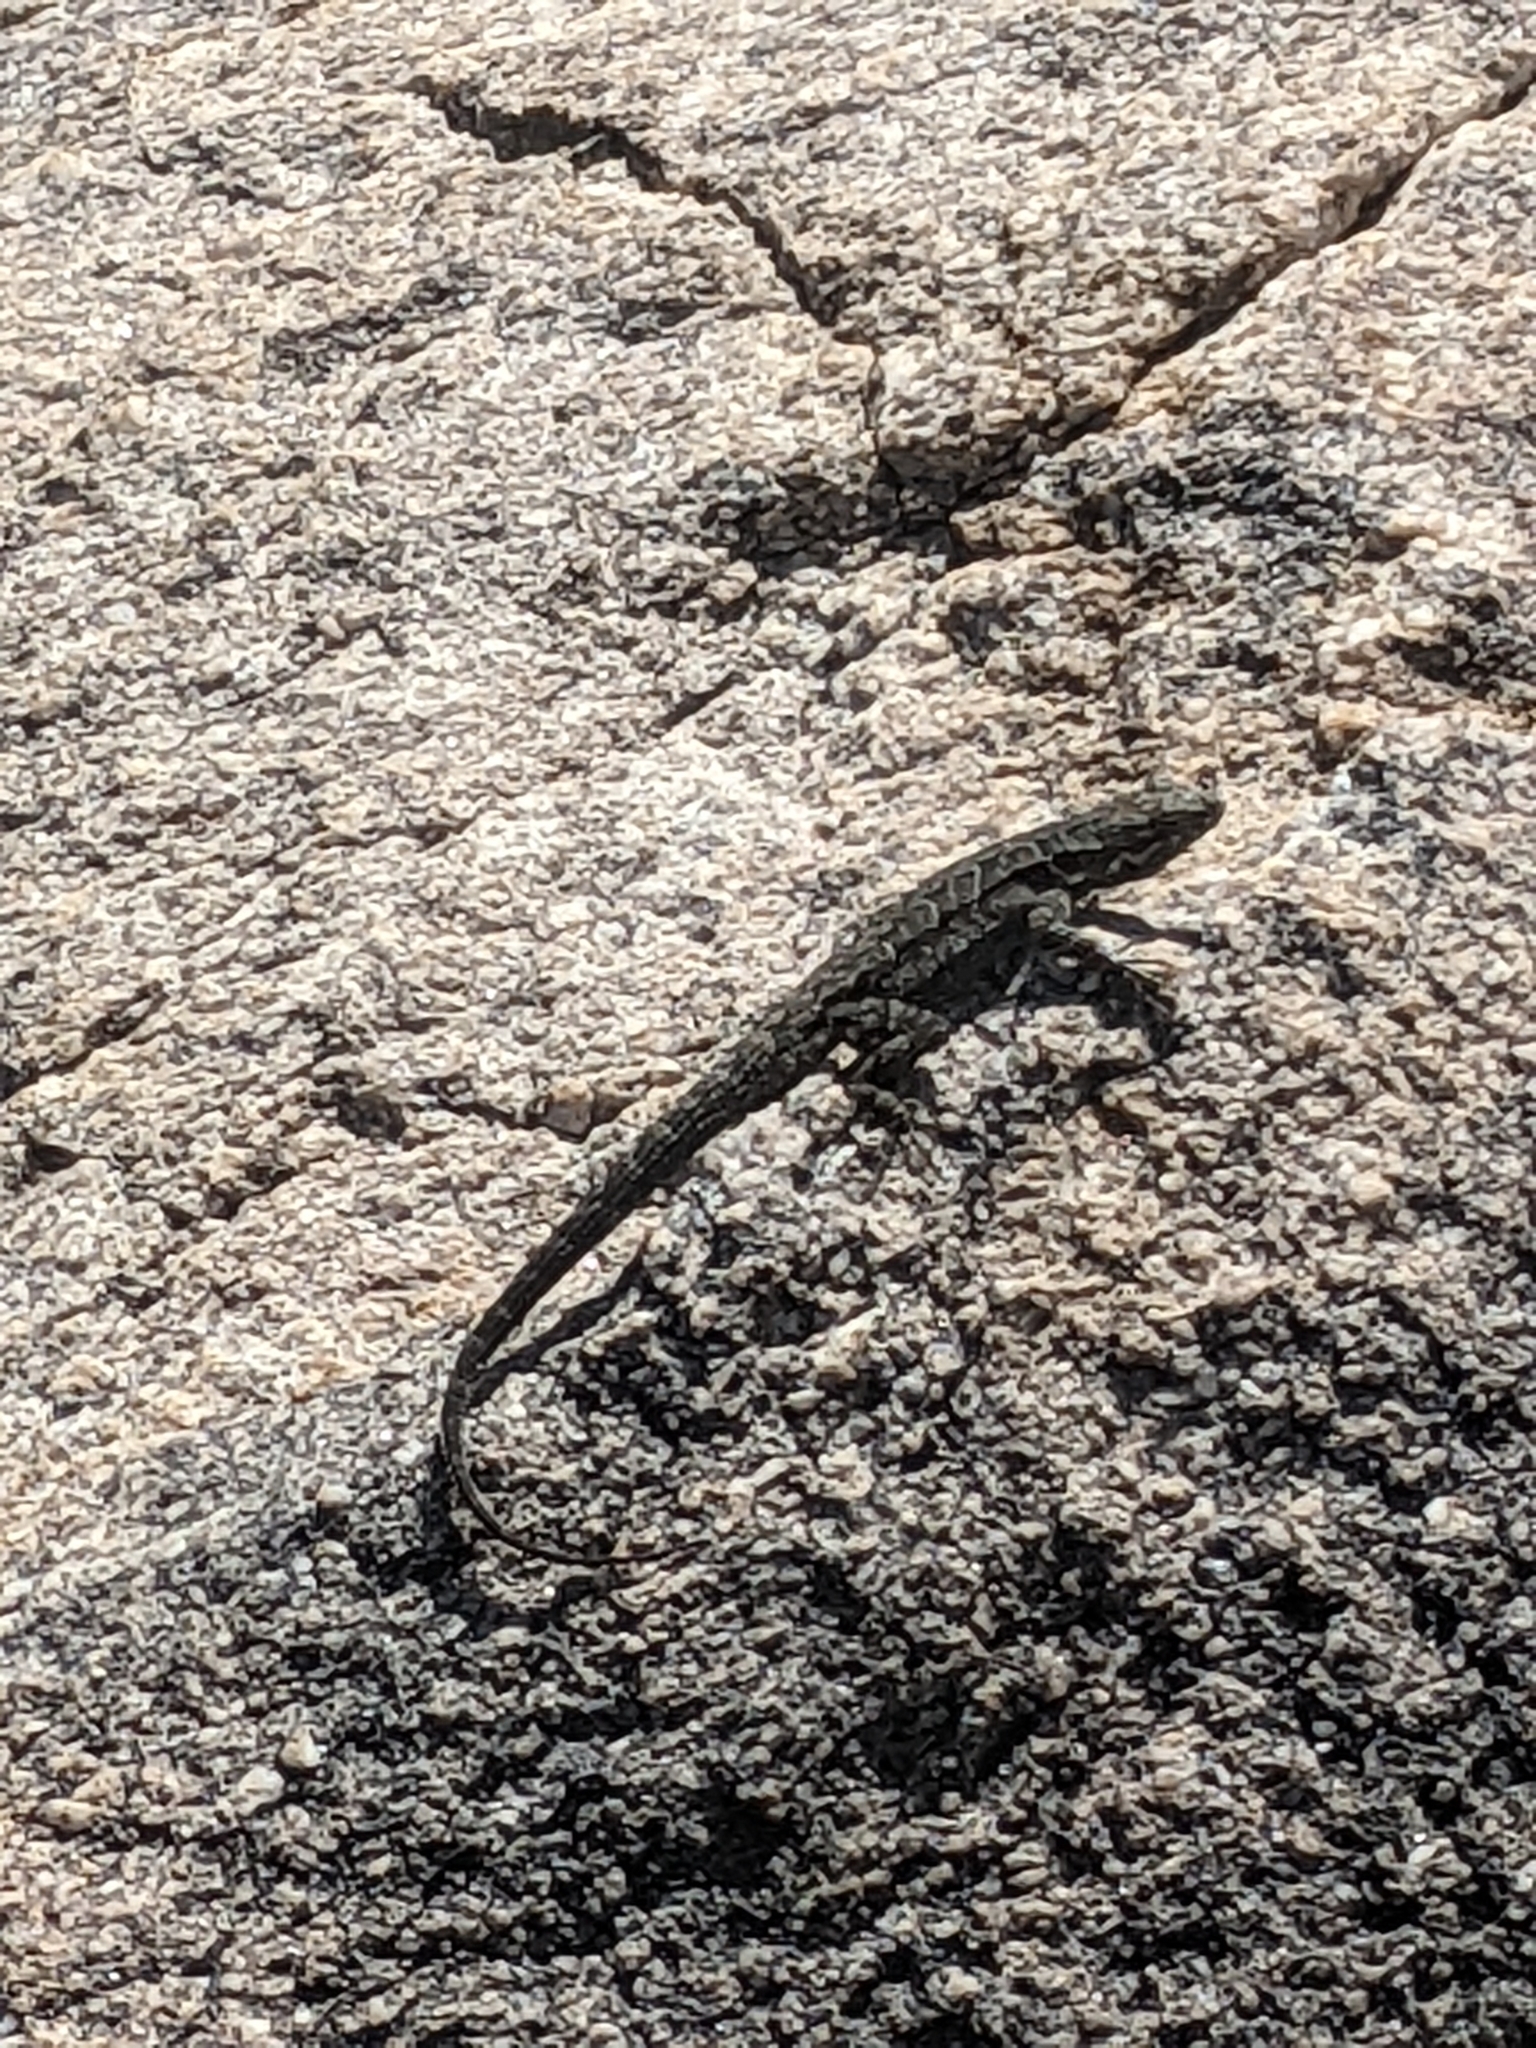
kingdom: Animalia
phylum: Chordata
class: Squamata
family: Phrynosomatidae
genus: Urosaurus
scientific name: Urosaurus ornatus
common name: Ornate tree lizard
